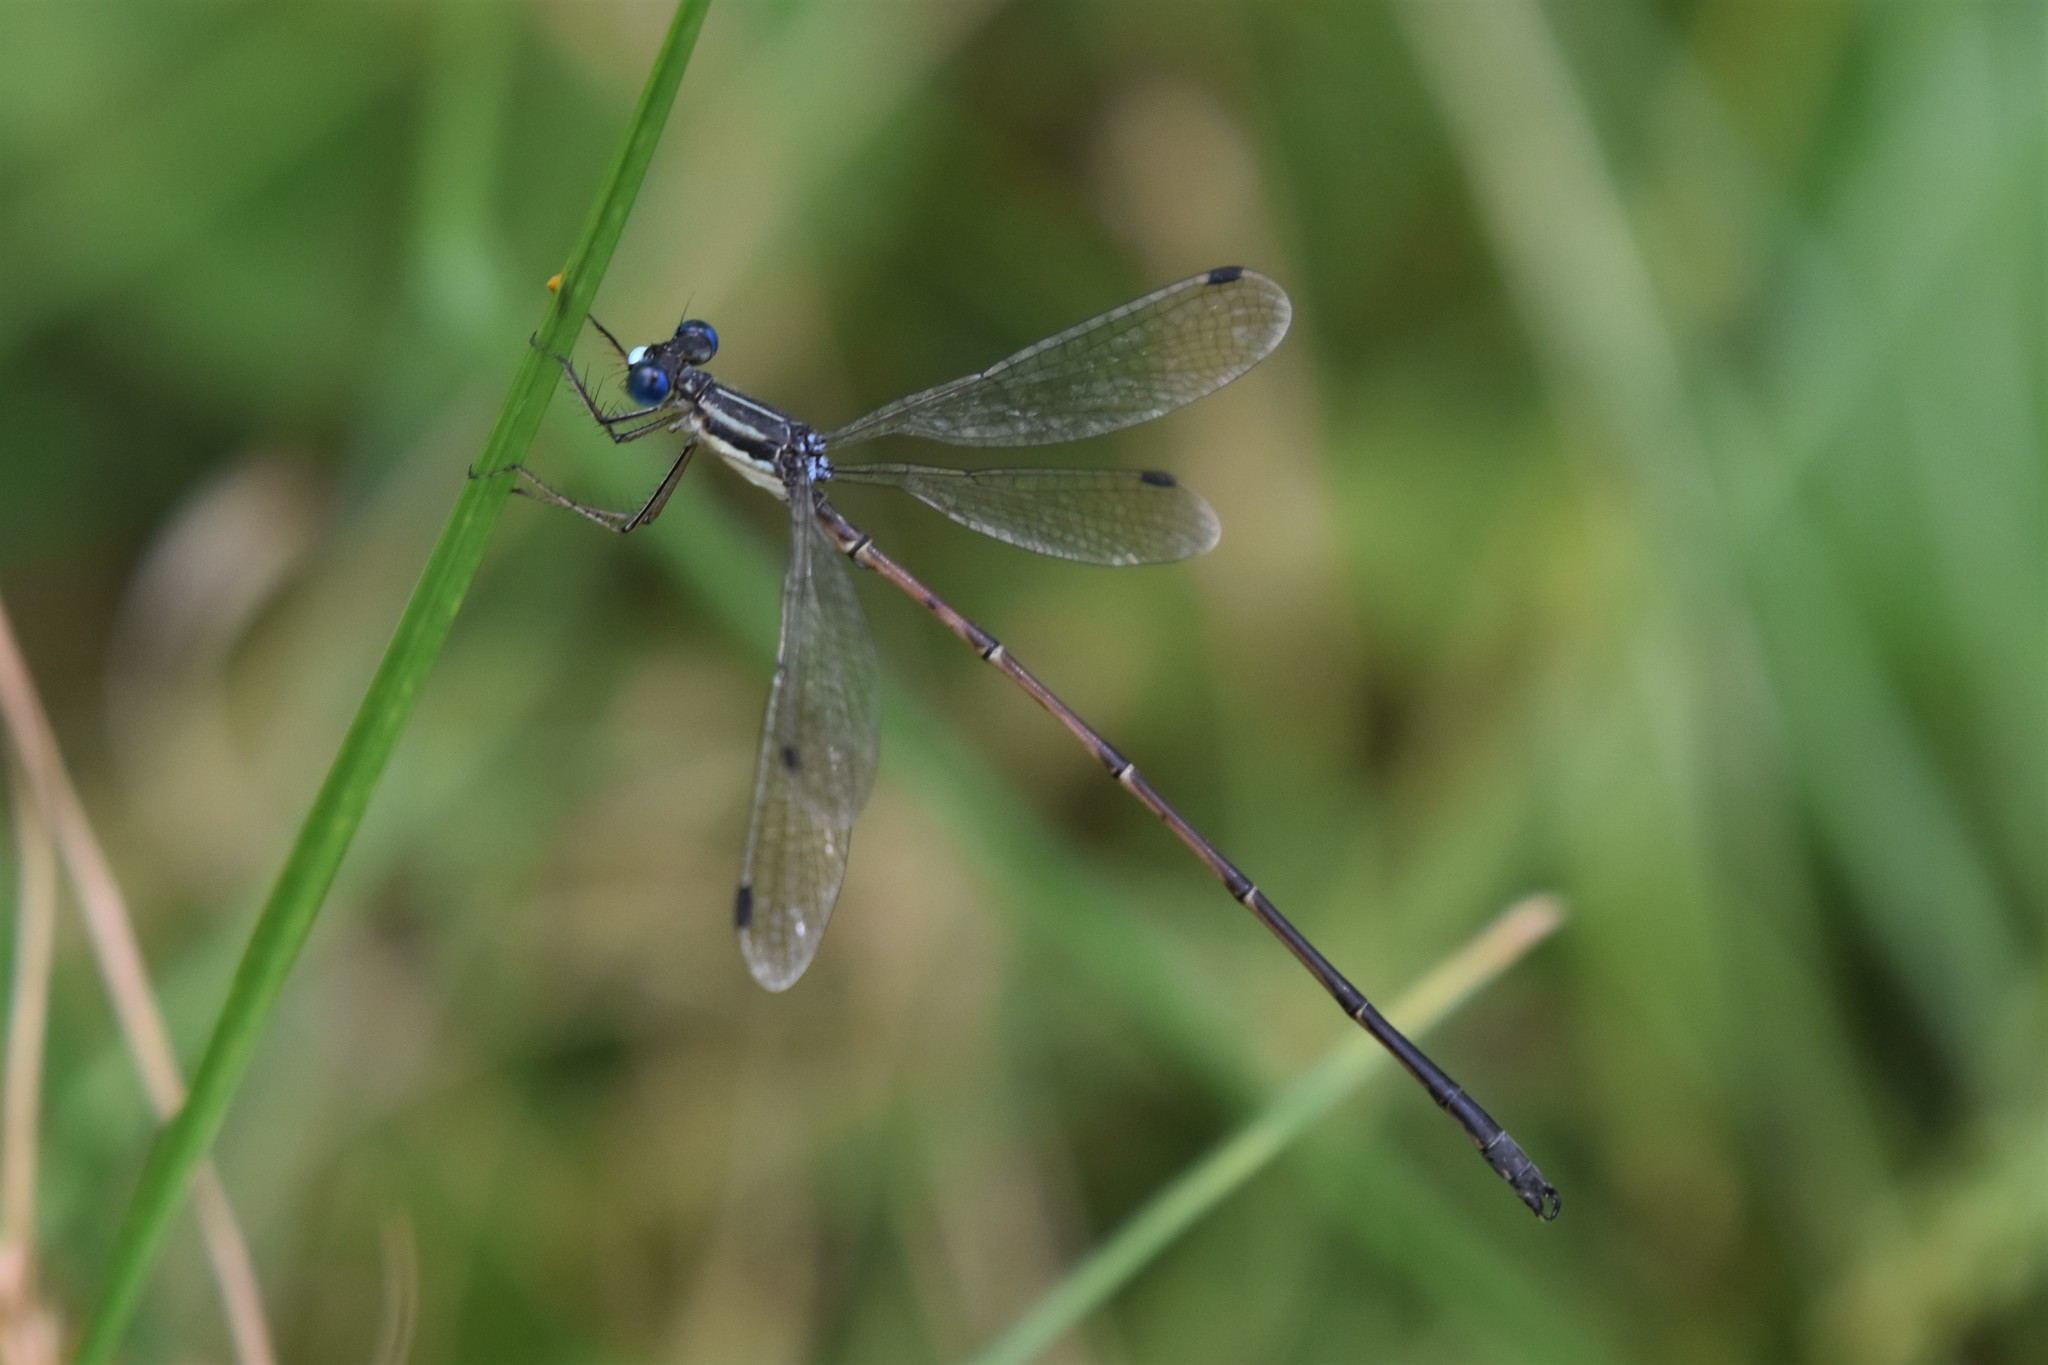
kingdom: Animalia
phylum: Arthropoda
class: Insecta
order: Odonata
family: Lestidae
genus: Lestes
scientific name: Lestes rectangularis
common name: Slender spreadwing
